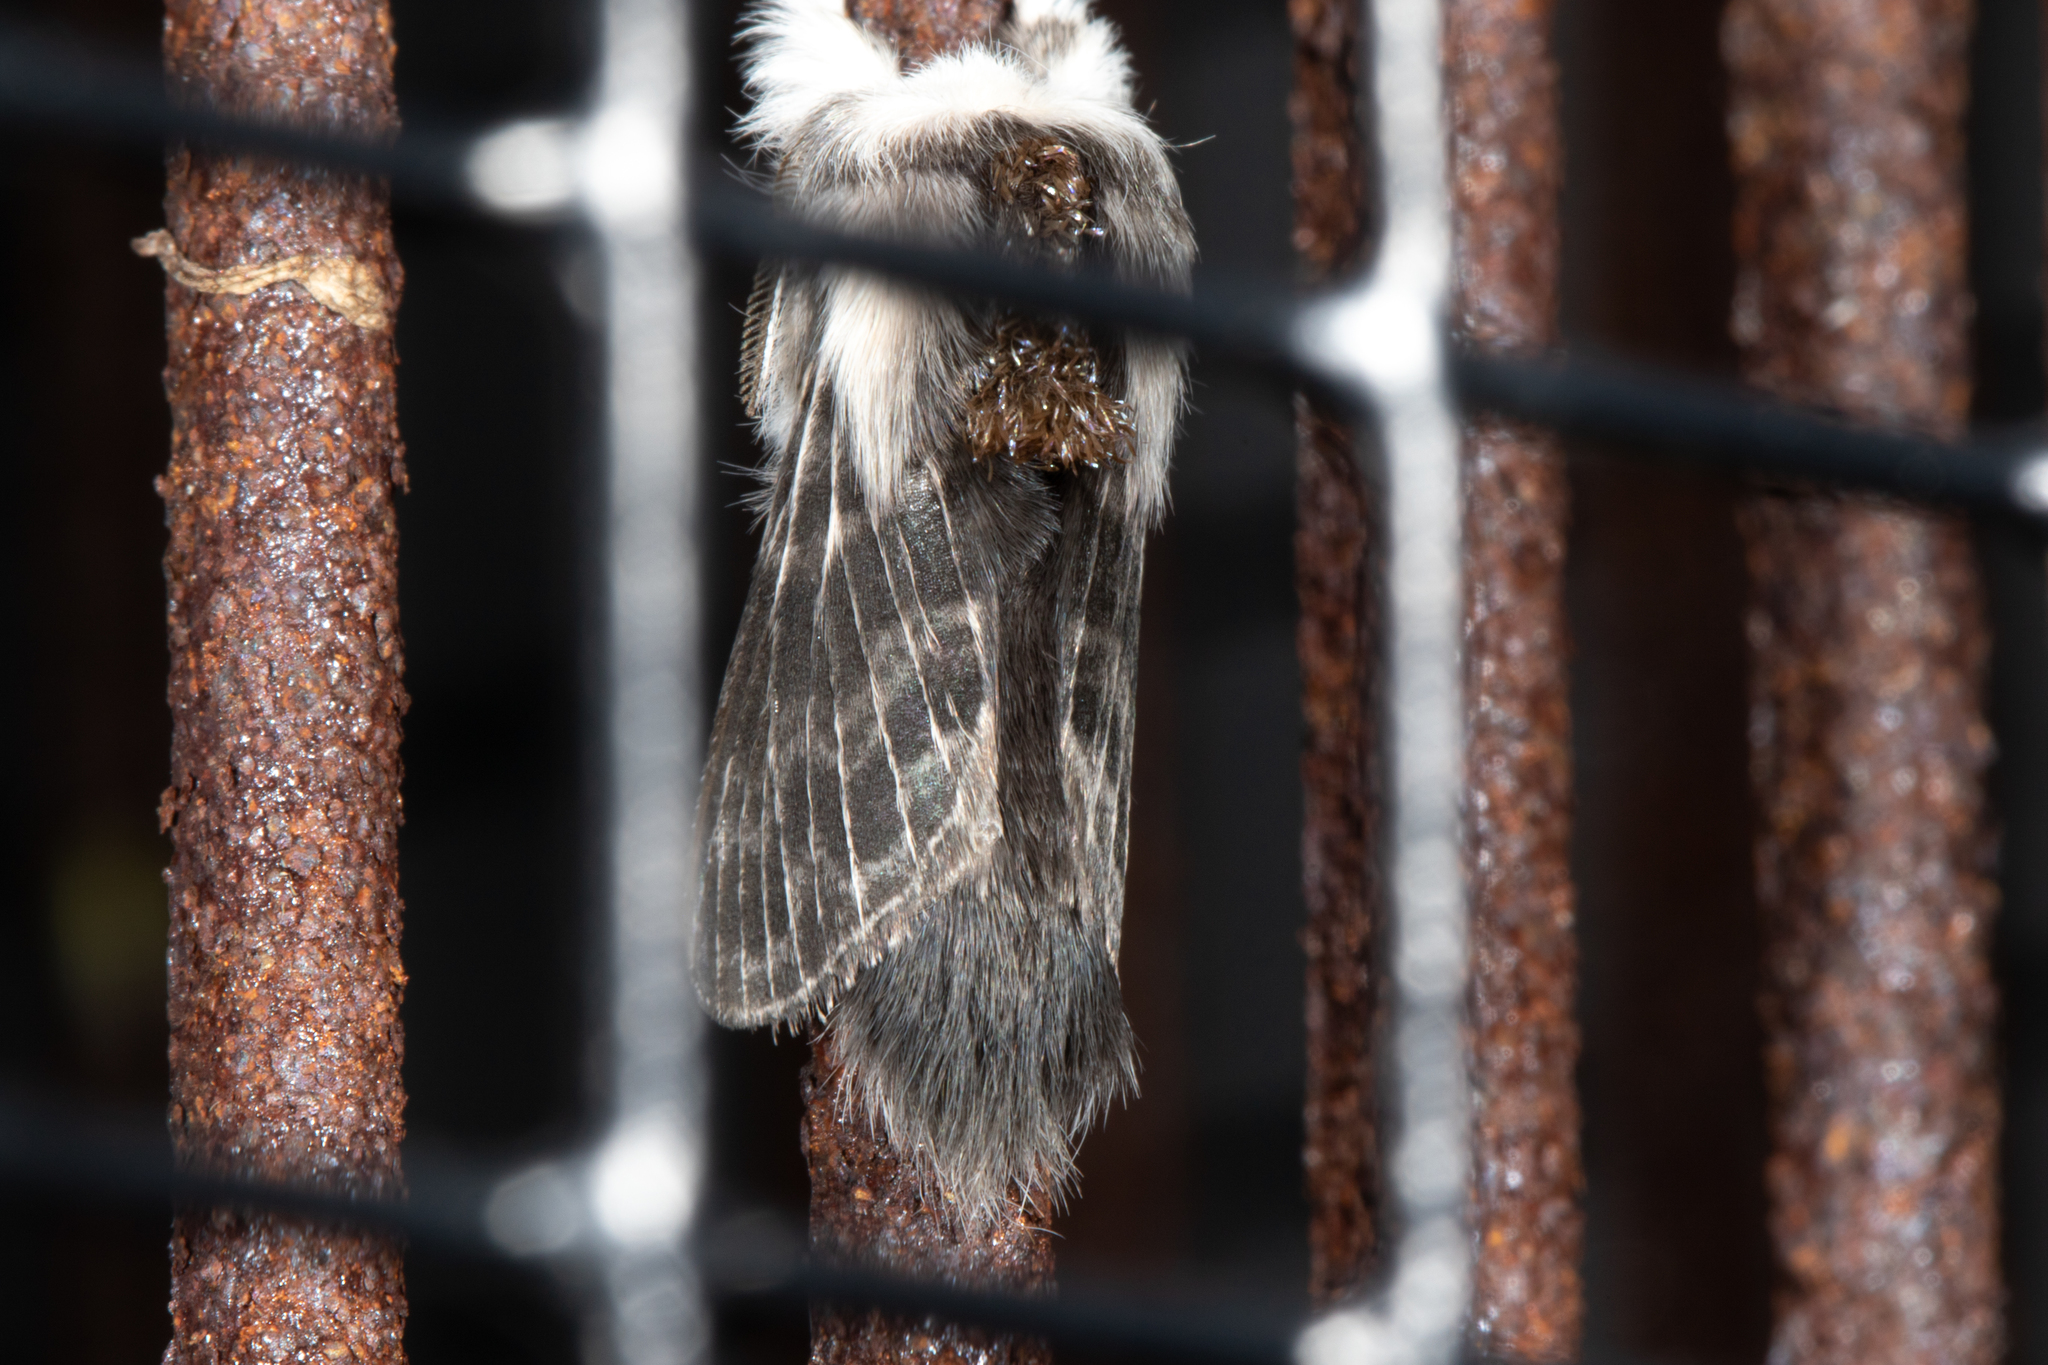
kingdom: Animalia
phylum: Arthropoda
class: Insecta
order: Lepidoptera
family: Lasiocampidae
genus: Tolype
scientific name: Tolype laricis
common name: Larch tolype moth
